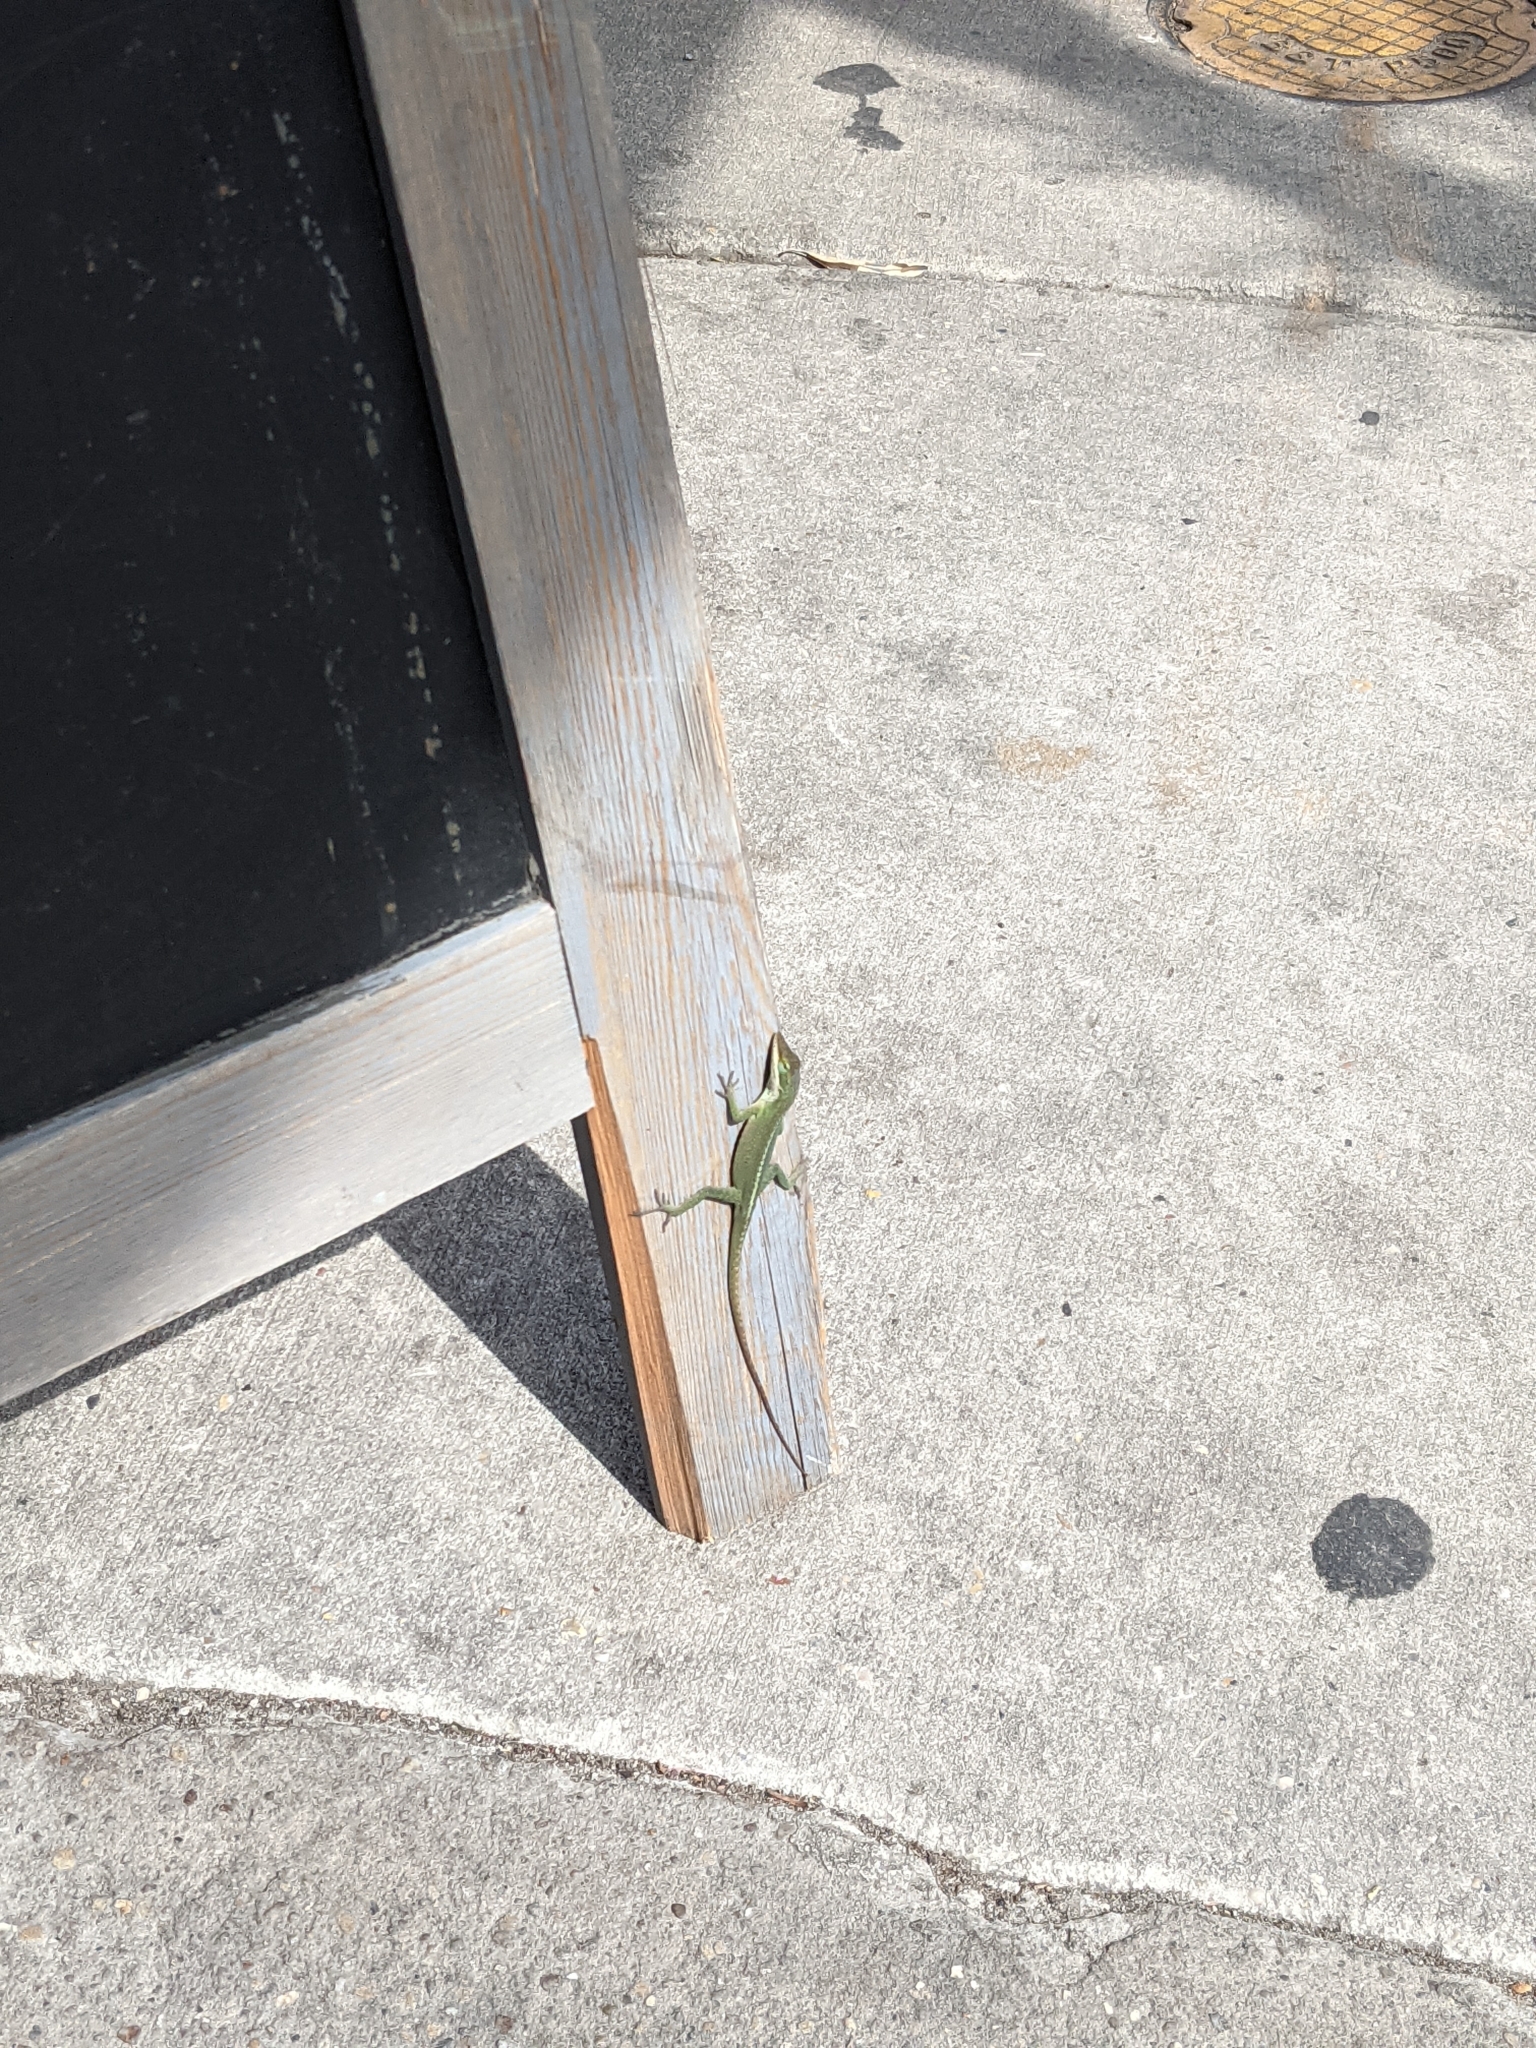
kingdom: Animalia
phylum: Chordata
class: Squamata
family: Dactyloidae
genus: Anolis
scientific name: Anolis carolinensis
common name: Green anole
